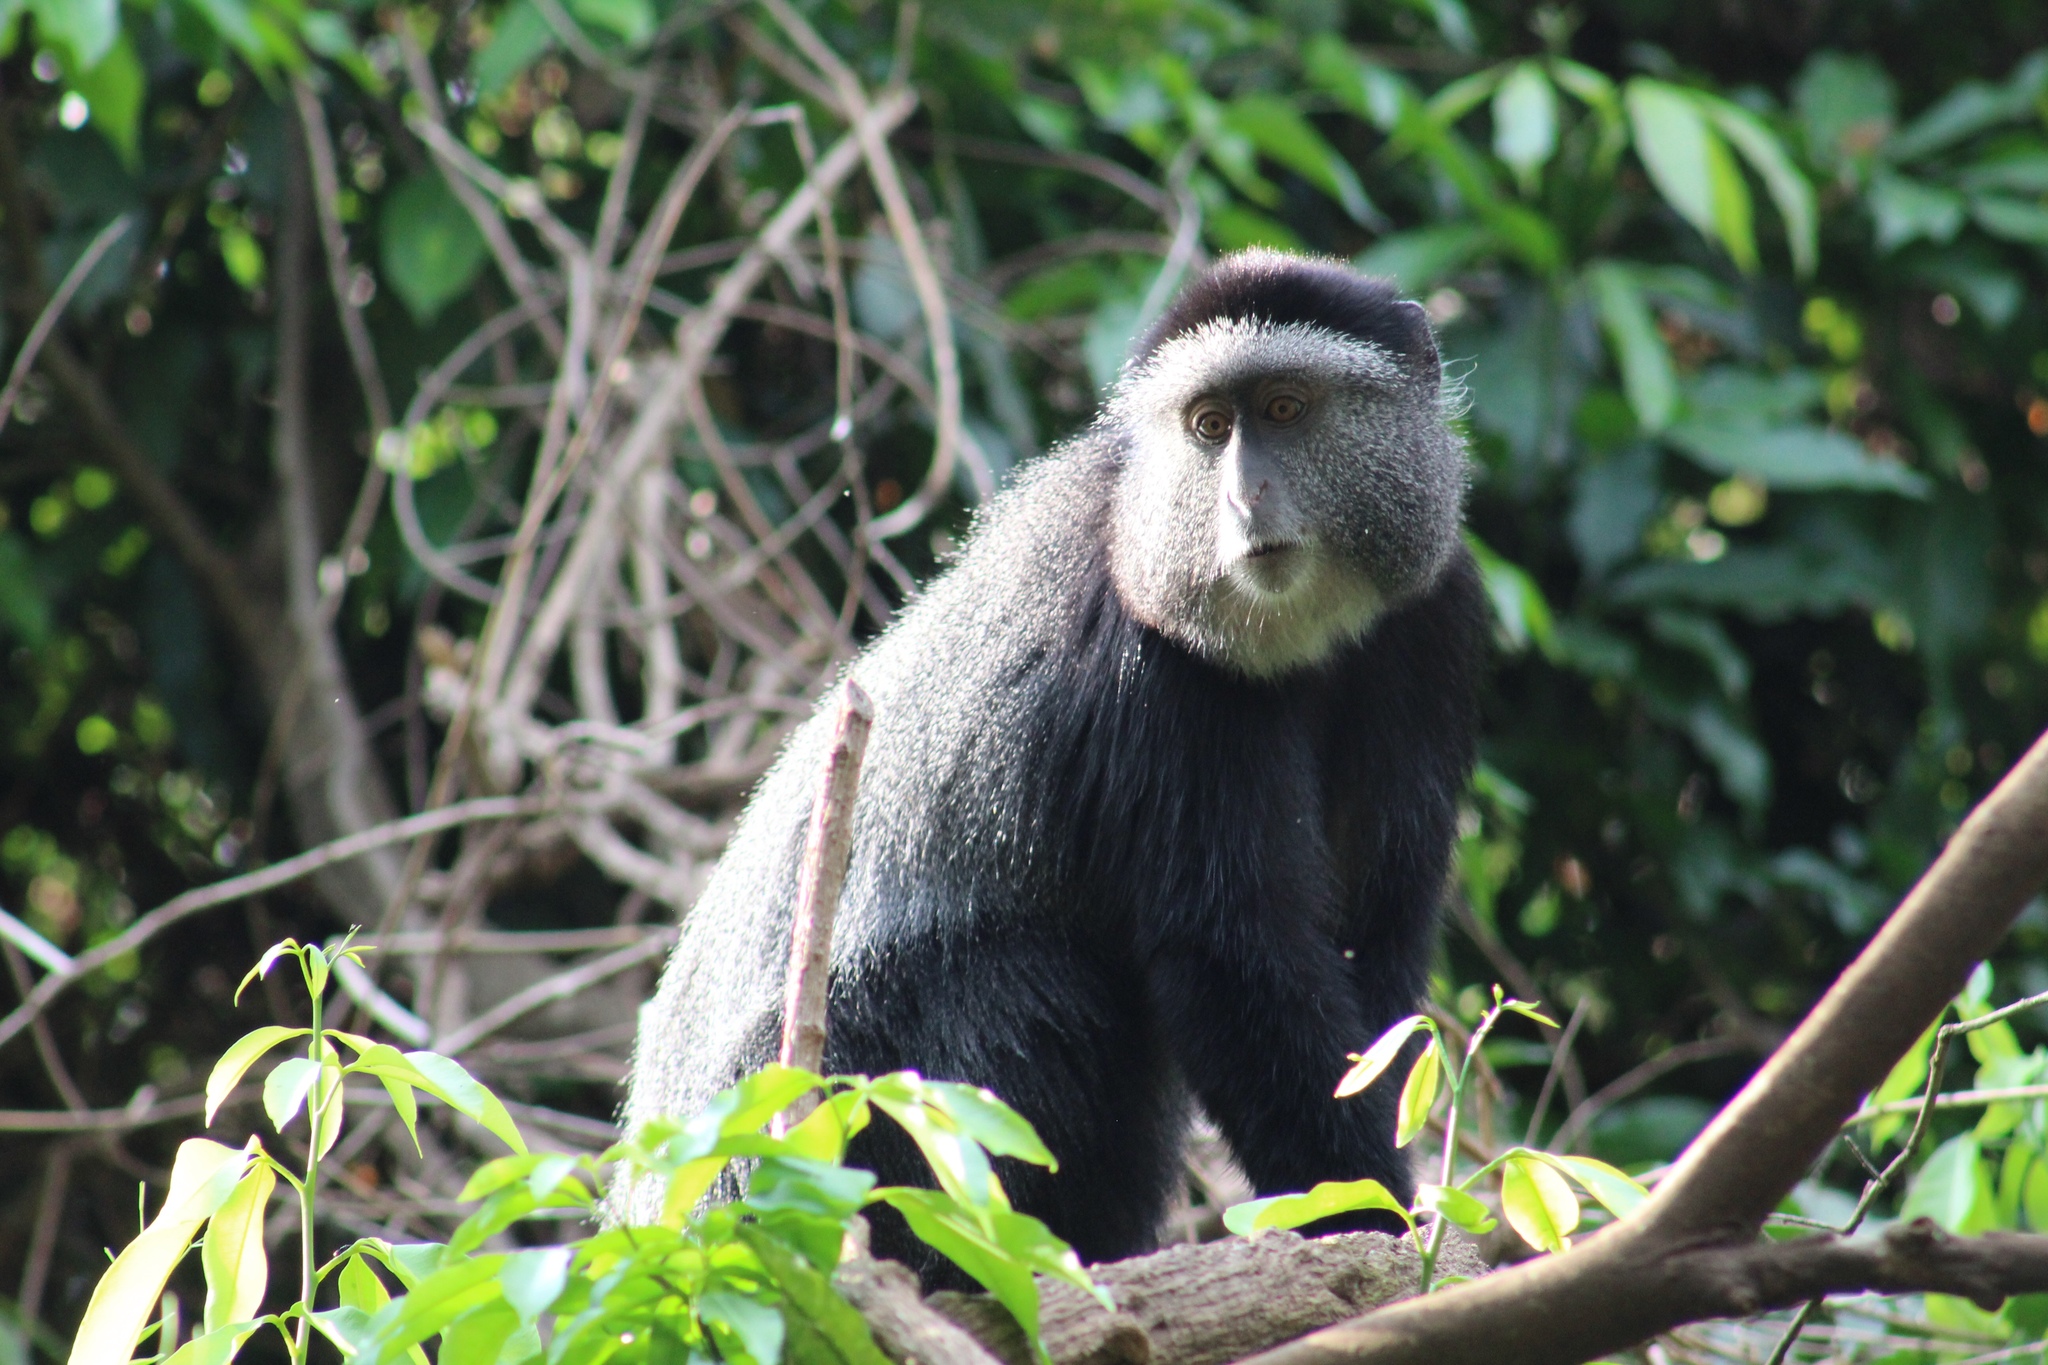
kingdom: Animalia
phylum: Chordata
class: Mammalia
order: Primates
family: Cercopithecidae
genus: Cercopithecus
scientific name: Cercopithecus mitis
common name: Blue monkey
